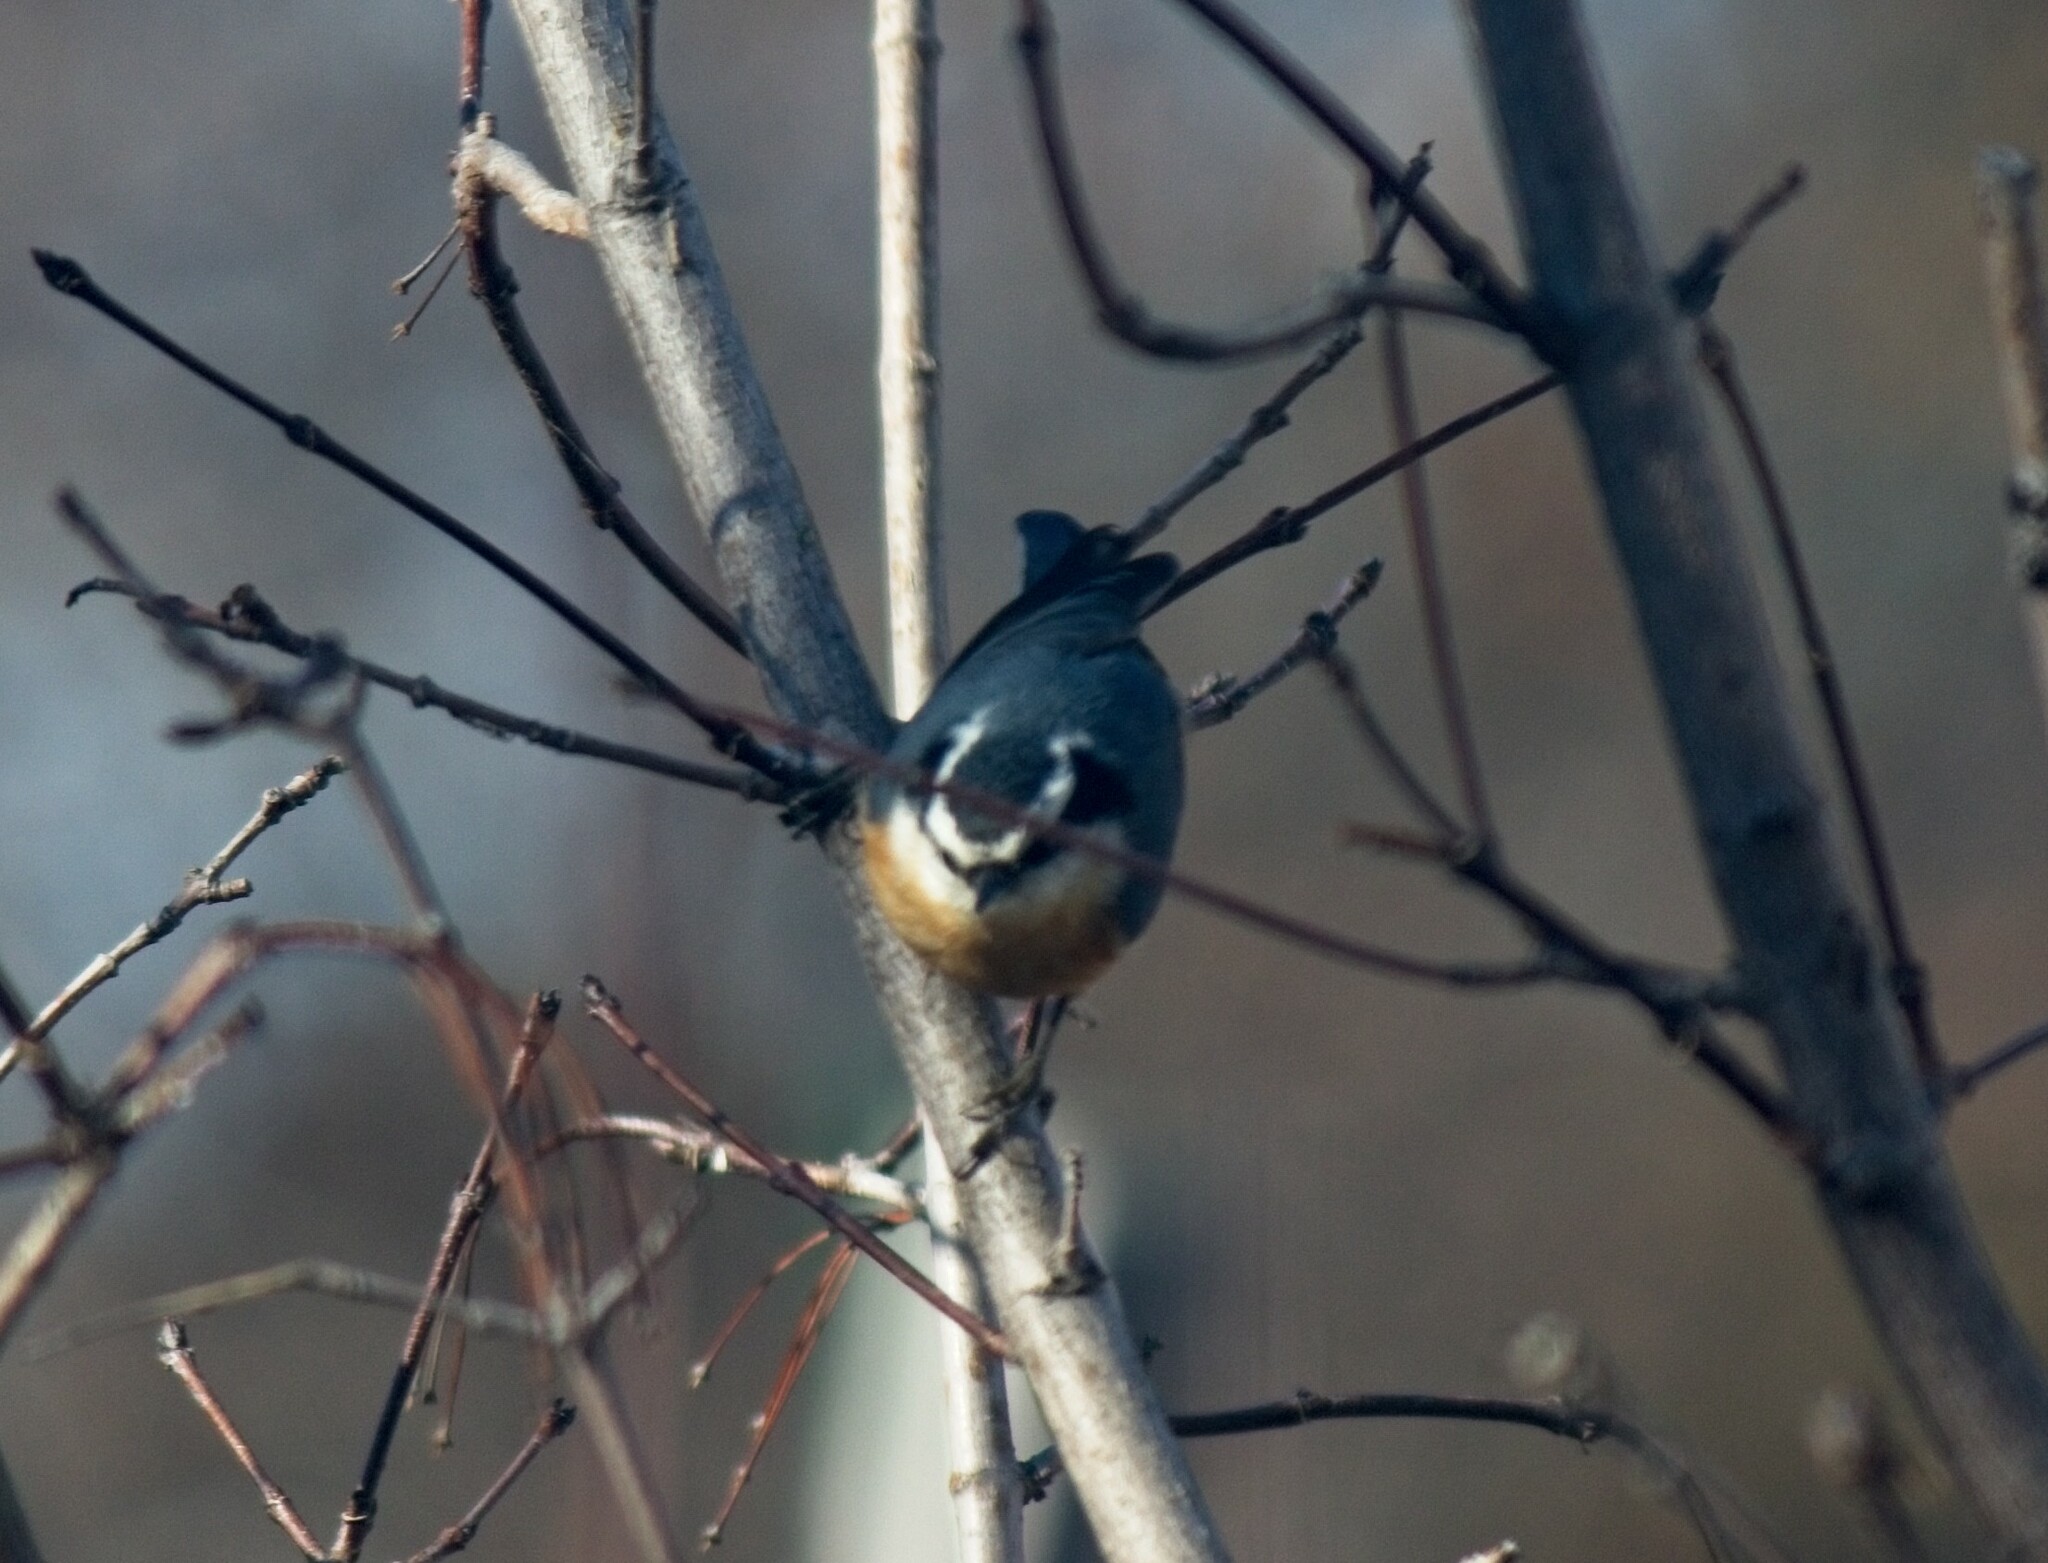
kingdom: Animalia
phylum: Chordata
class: Aves
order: Passeriformes
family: Sittidae
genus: Sitta
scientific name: Sitta canadensis
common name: Red-breasted nuthatch
